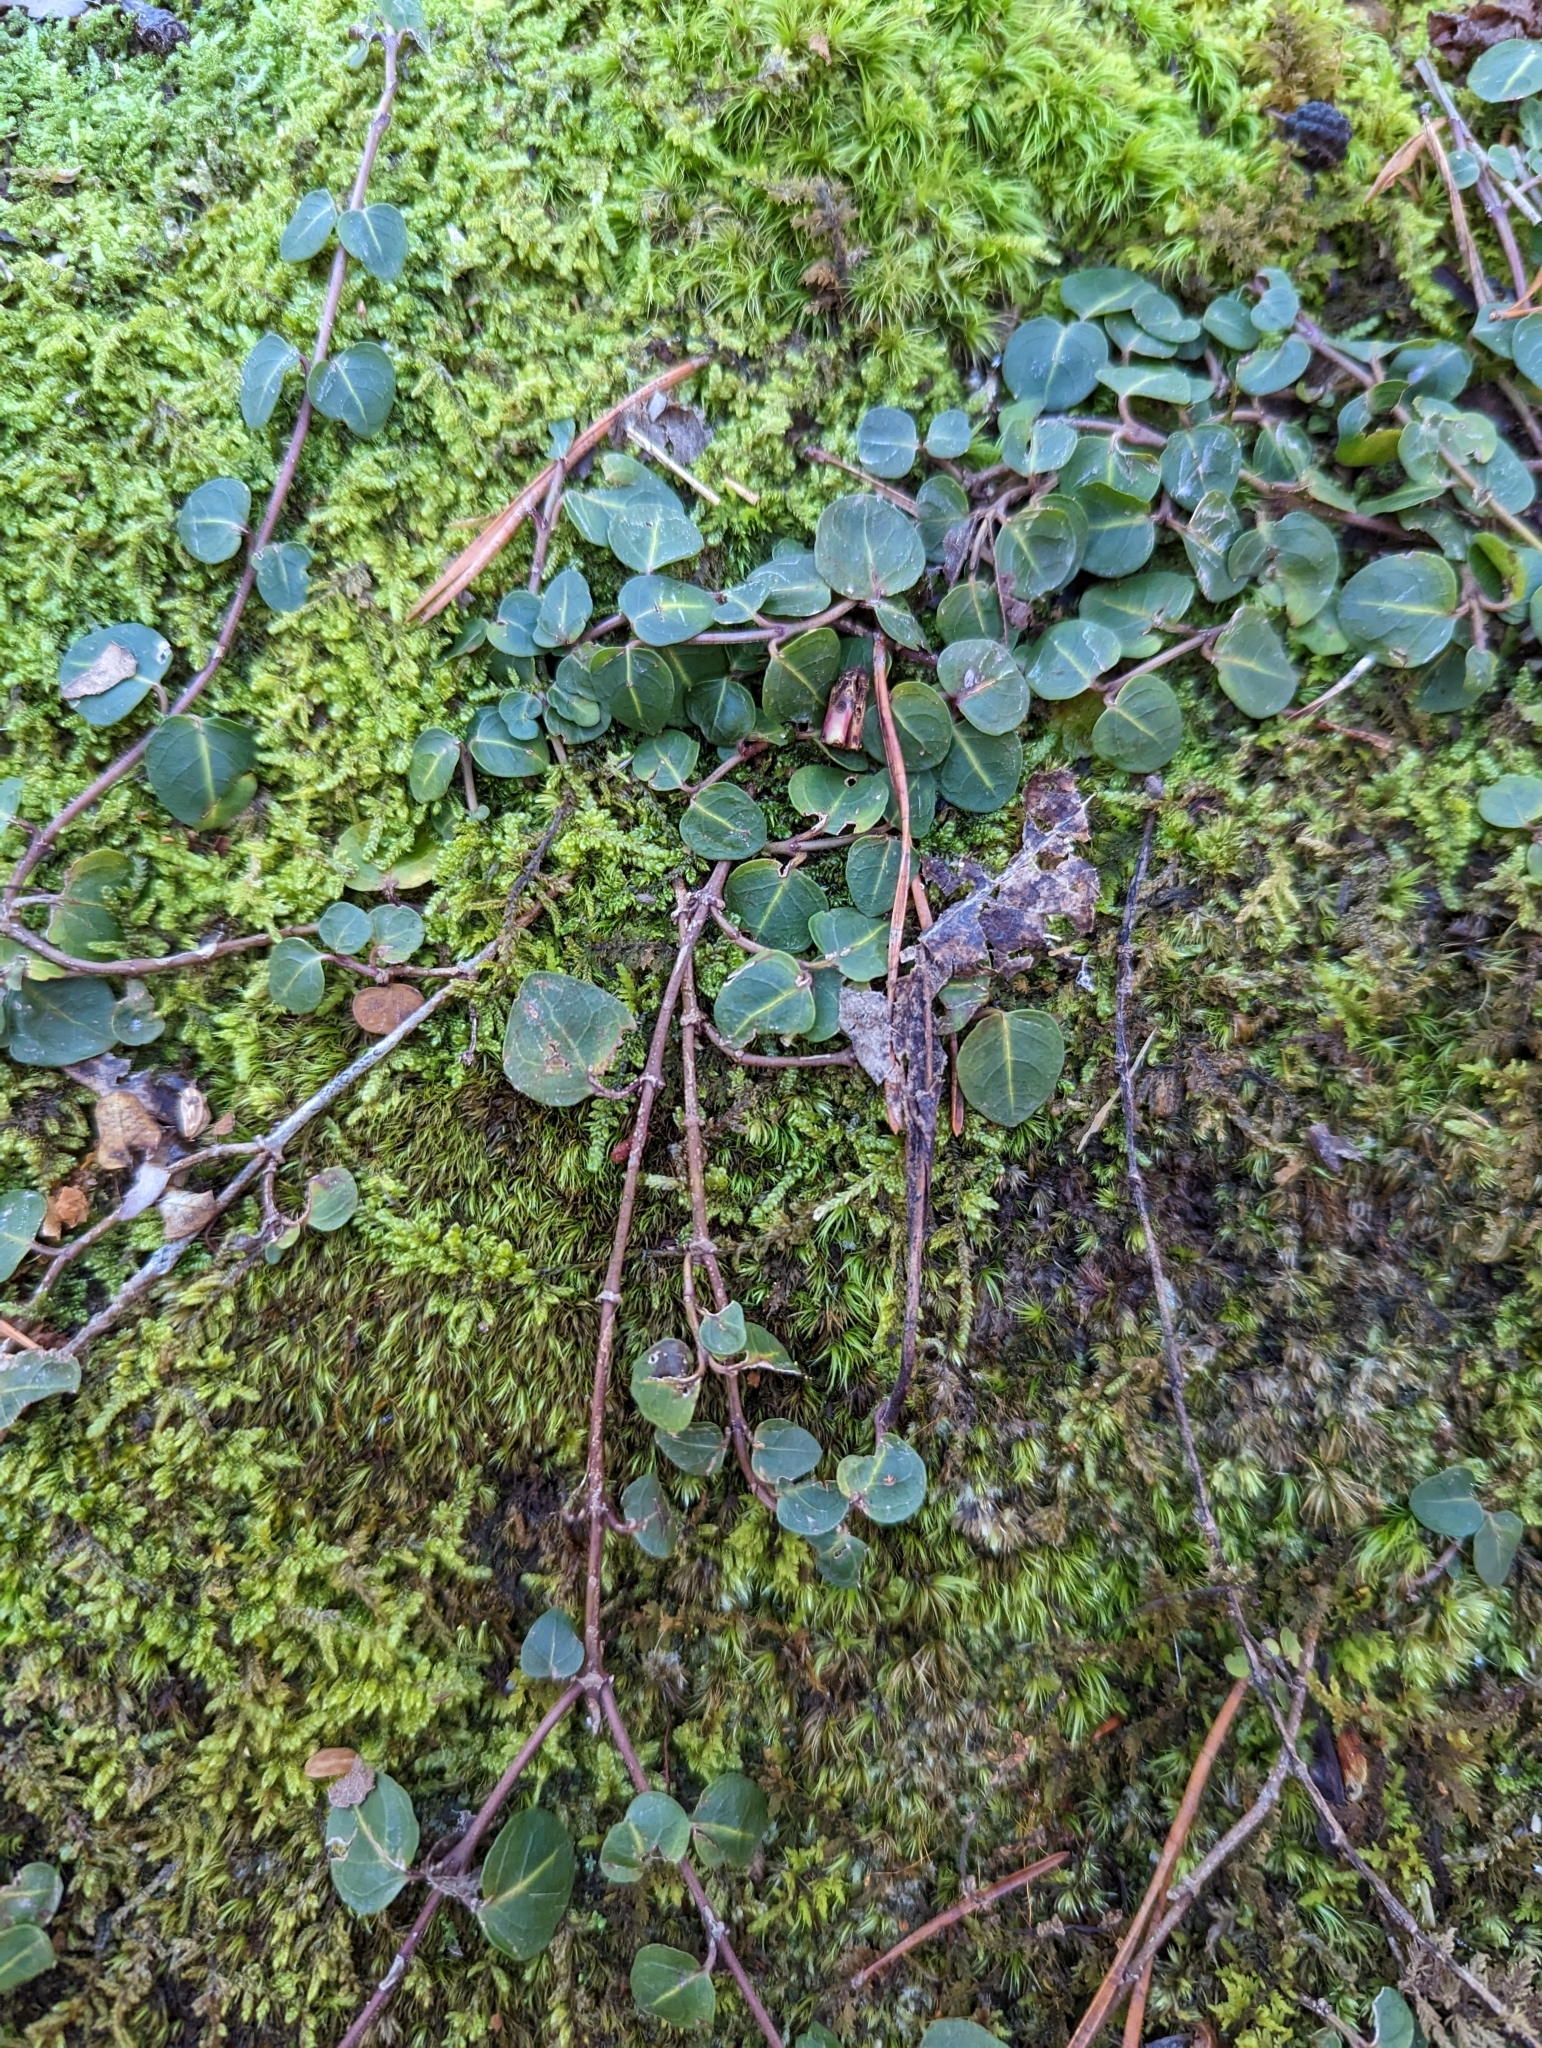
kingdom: Plantae
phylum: Tracheophyta
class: Magnoliopsida
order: Gentianales
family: Rubiaceae
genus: Mitchella
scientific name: Mitchella repens
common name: Partridge-berry
